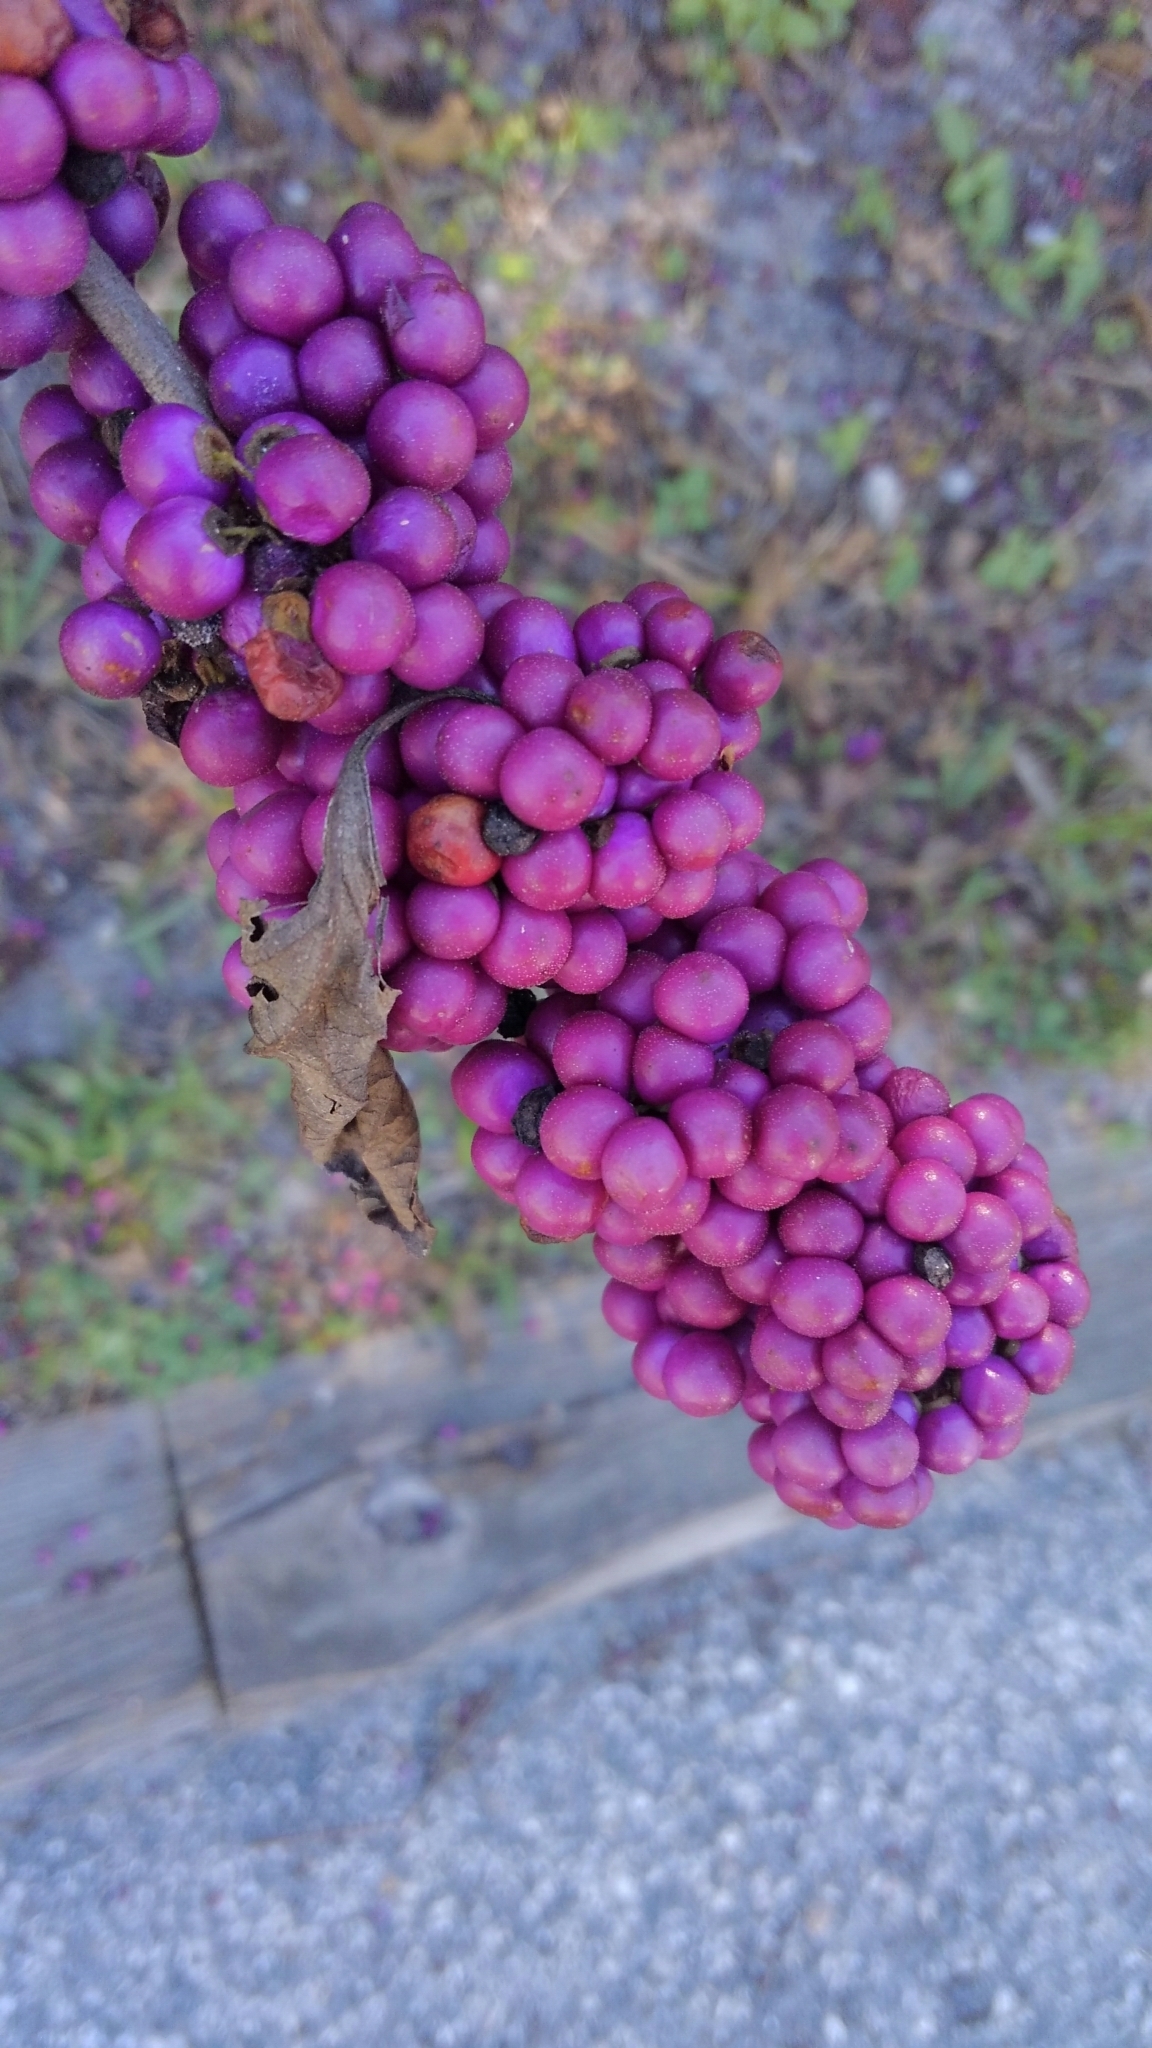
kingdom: Plantae
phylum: Tracheophyta
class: Magnoliopsida
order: Lamiales
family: Lamiaceae
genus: Callicarpa
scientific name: Callicarpa americana
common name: American beautyberry
